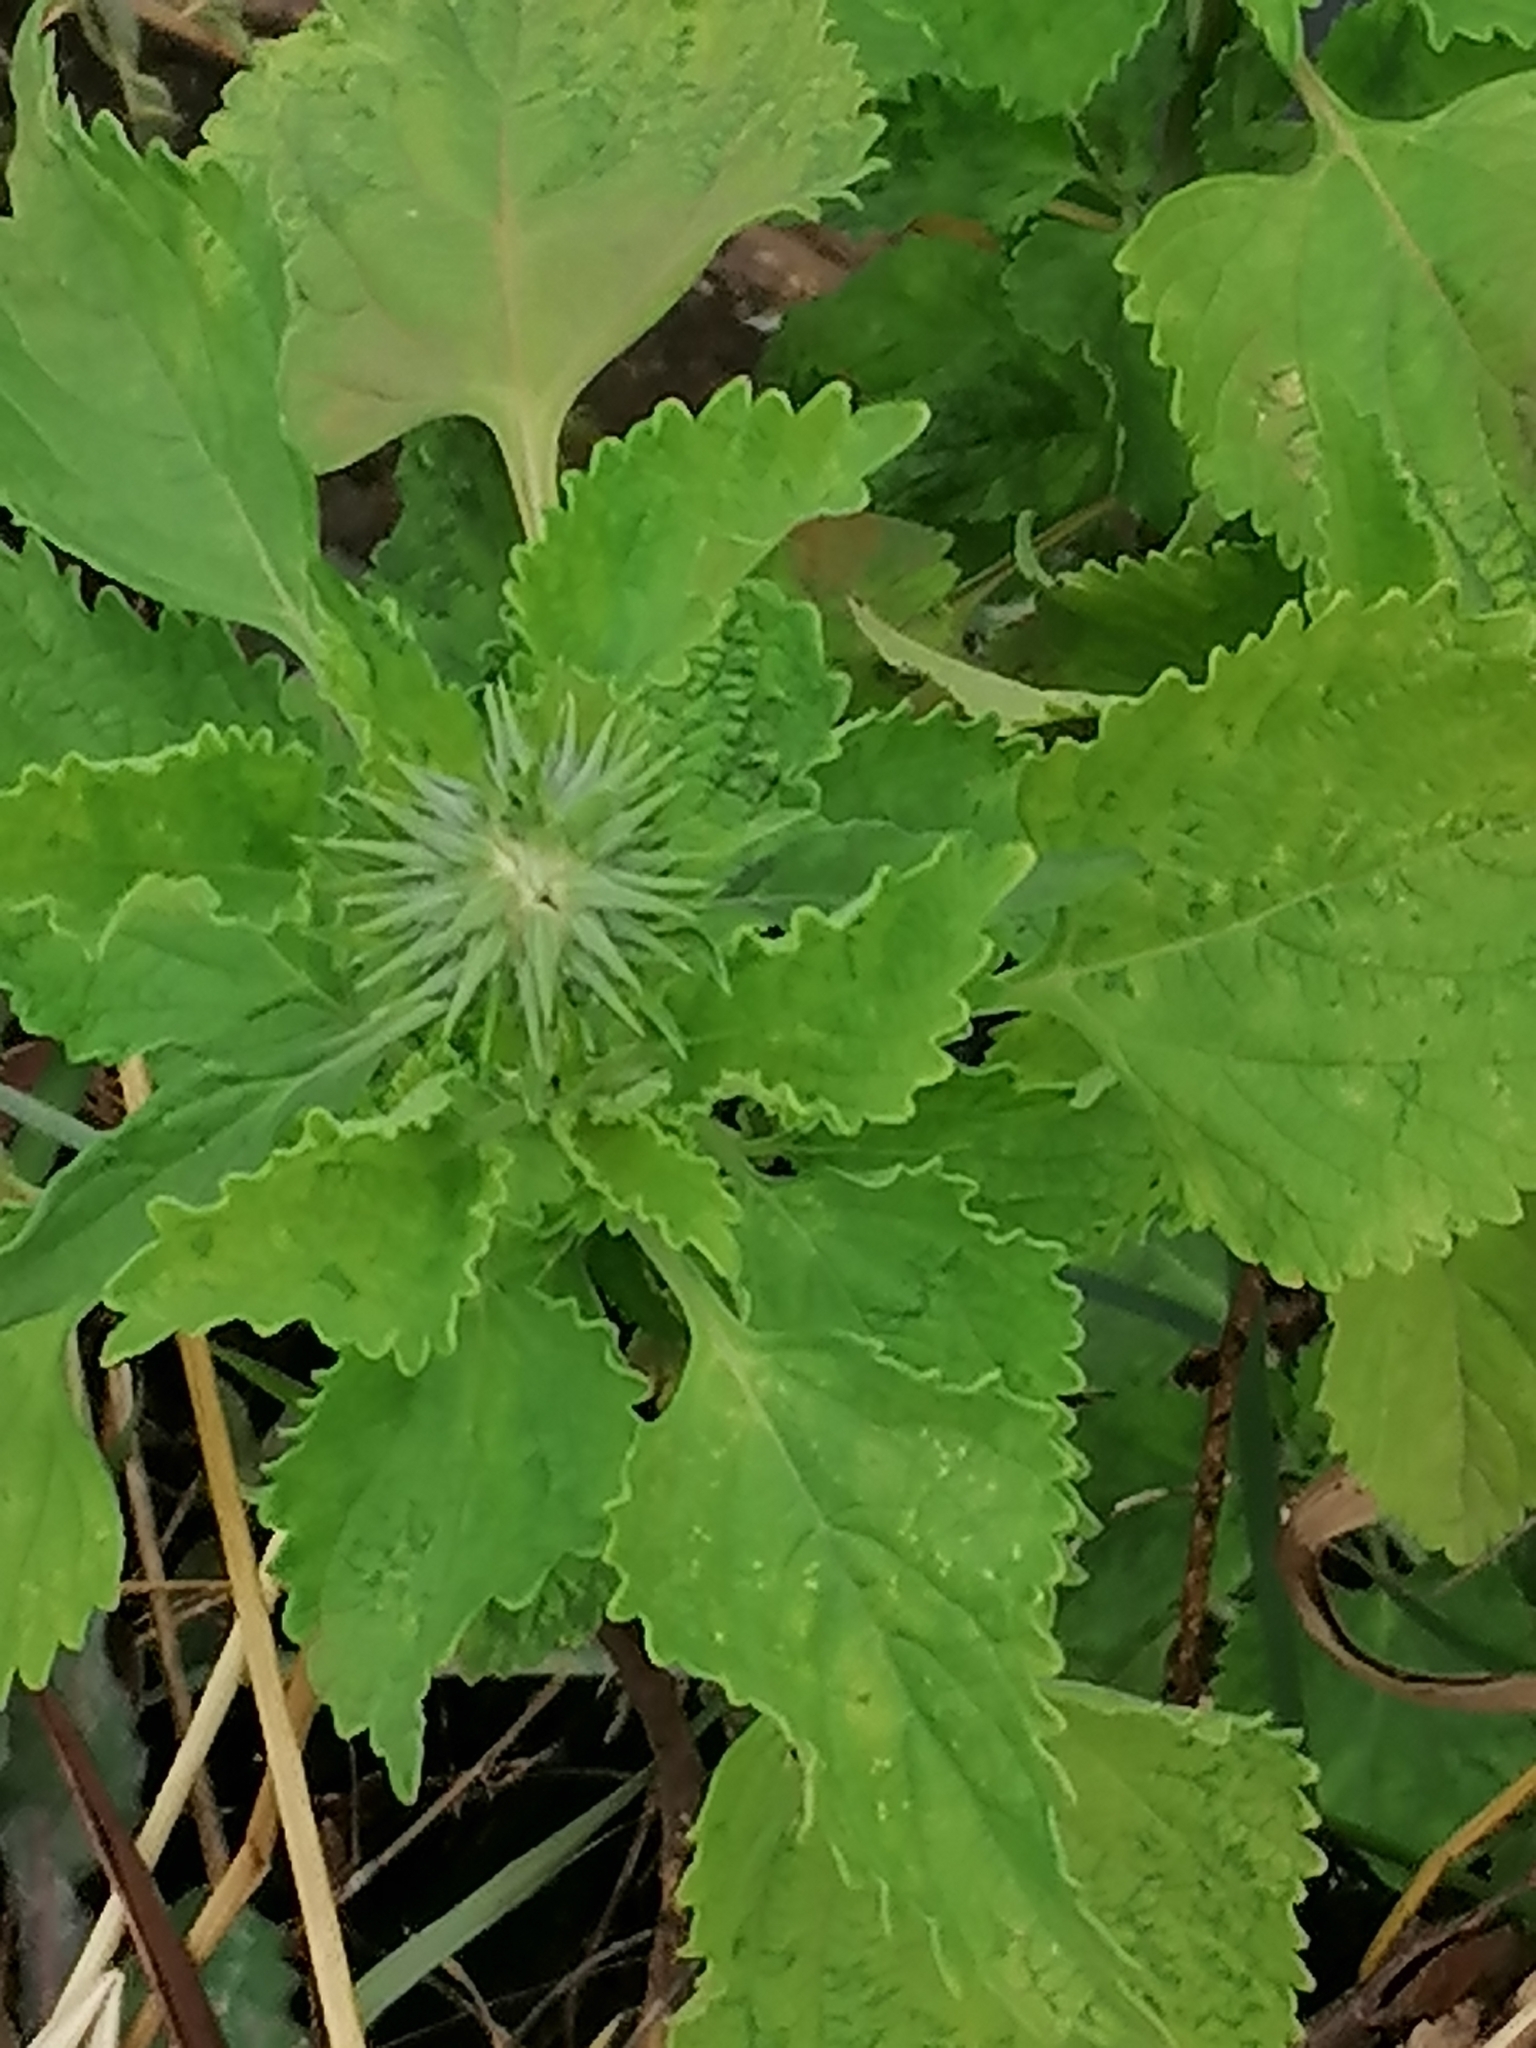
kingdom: Plantae
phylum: Tracheophyta
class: Magnoliopsida
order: Lamiales
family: Lamiaceae
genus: Leonotis
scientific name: Leonotis nepetifolia
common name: Christmas candlestick
